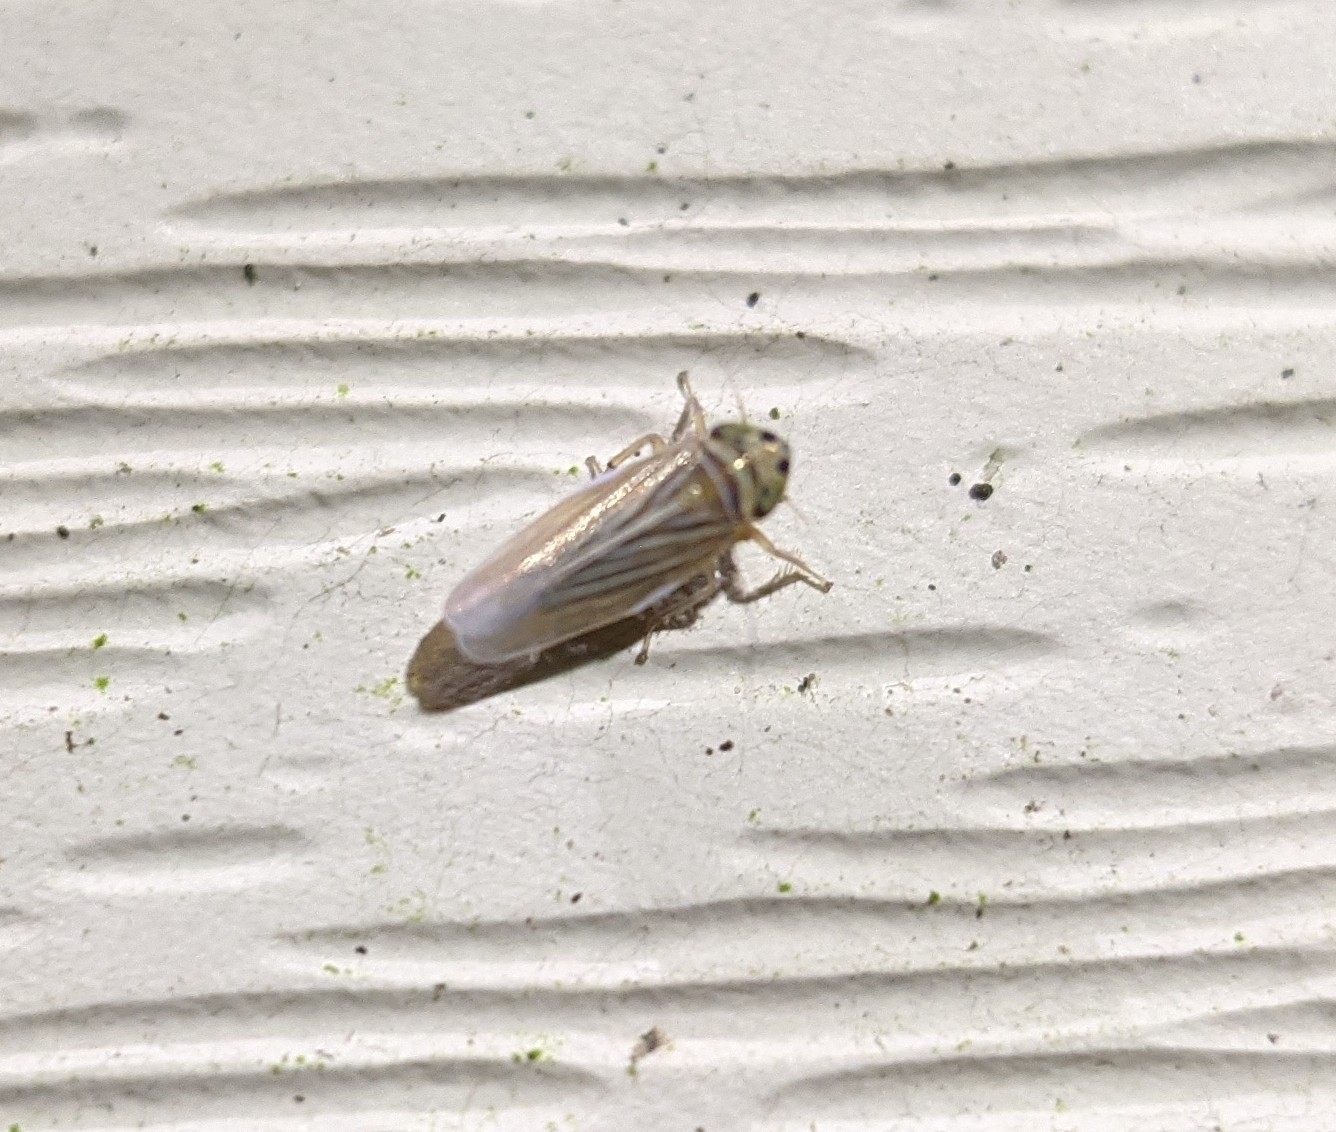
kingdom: Animalia
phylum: Arthropoda
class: Insecta
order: Hemiptera
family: Cicadellidae
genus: Graminella
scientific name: Graminella villicus
